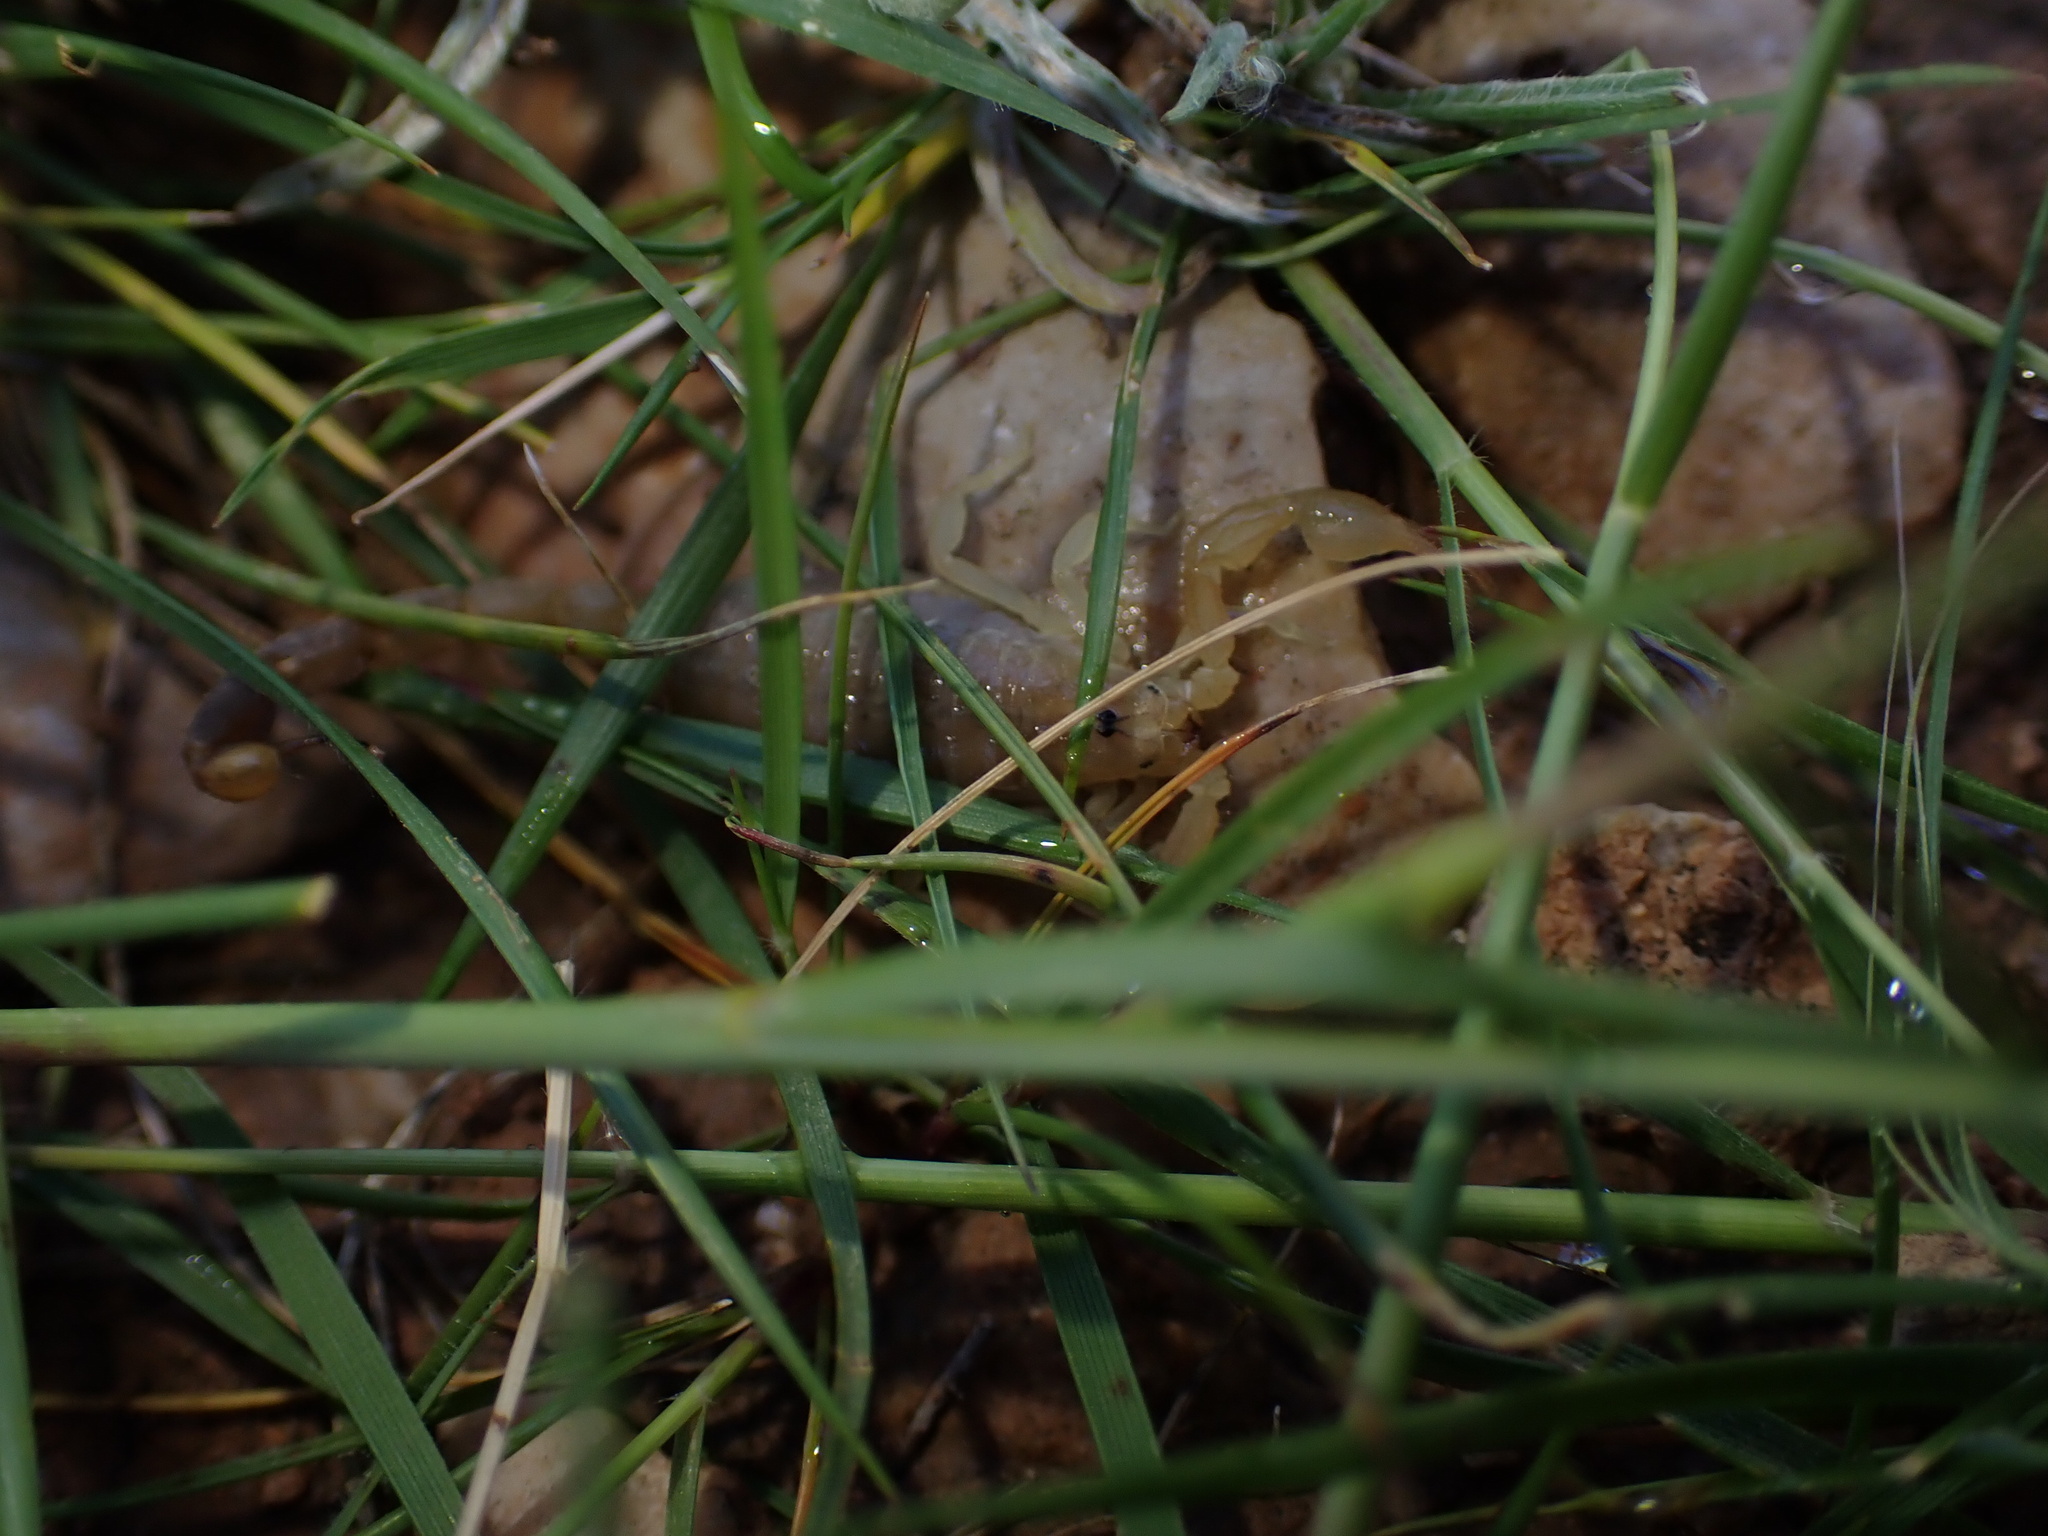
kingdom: Animalia
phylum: Arthropoda
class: Arachnida
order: Scorpiones
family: Buthidae
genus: Razianus
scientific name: Razianus zarudnyi
